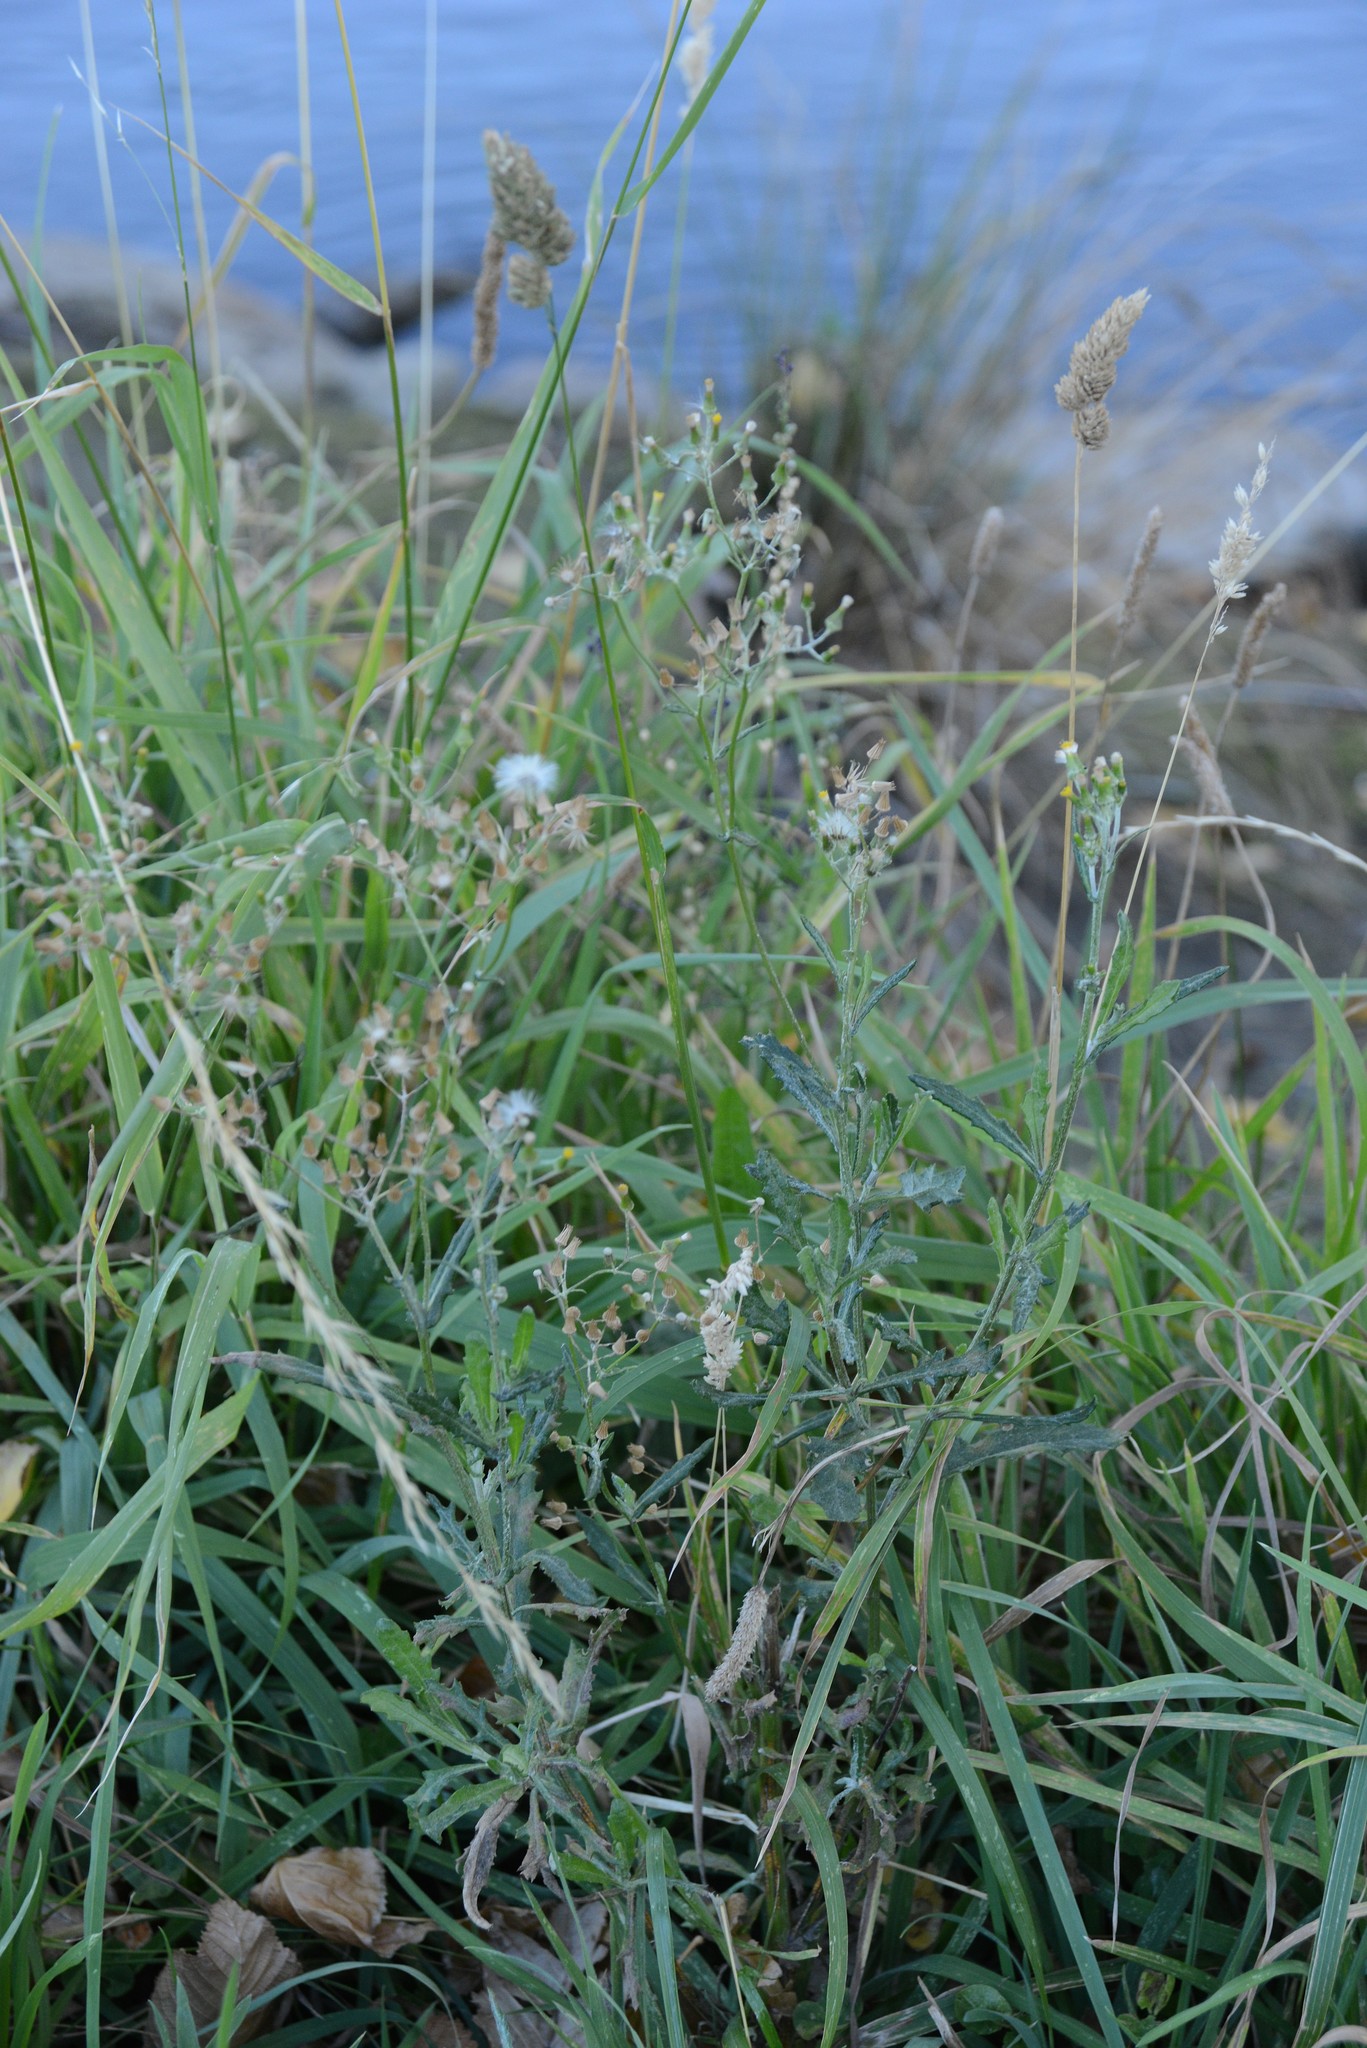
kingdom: Plantae
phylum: Tracheophyta
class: Magnoliopsida
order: Asterales
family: Asteraceae
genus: Senecio
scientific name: Senecio glomeratus
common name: Cutleaf burnweed
